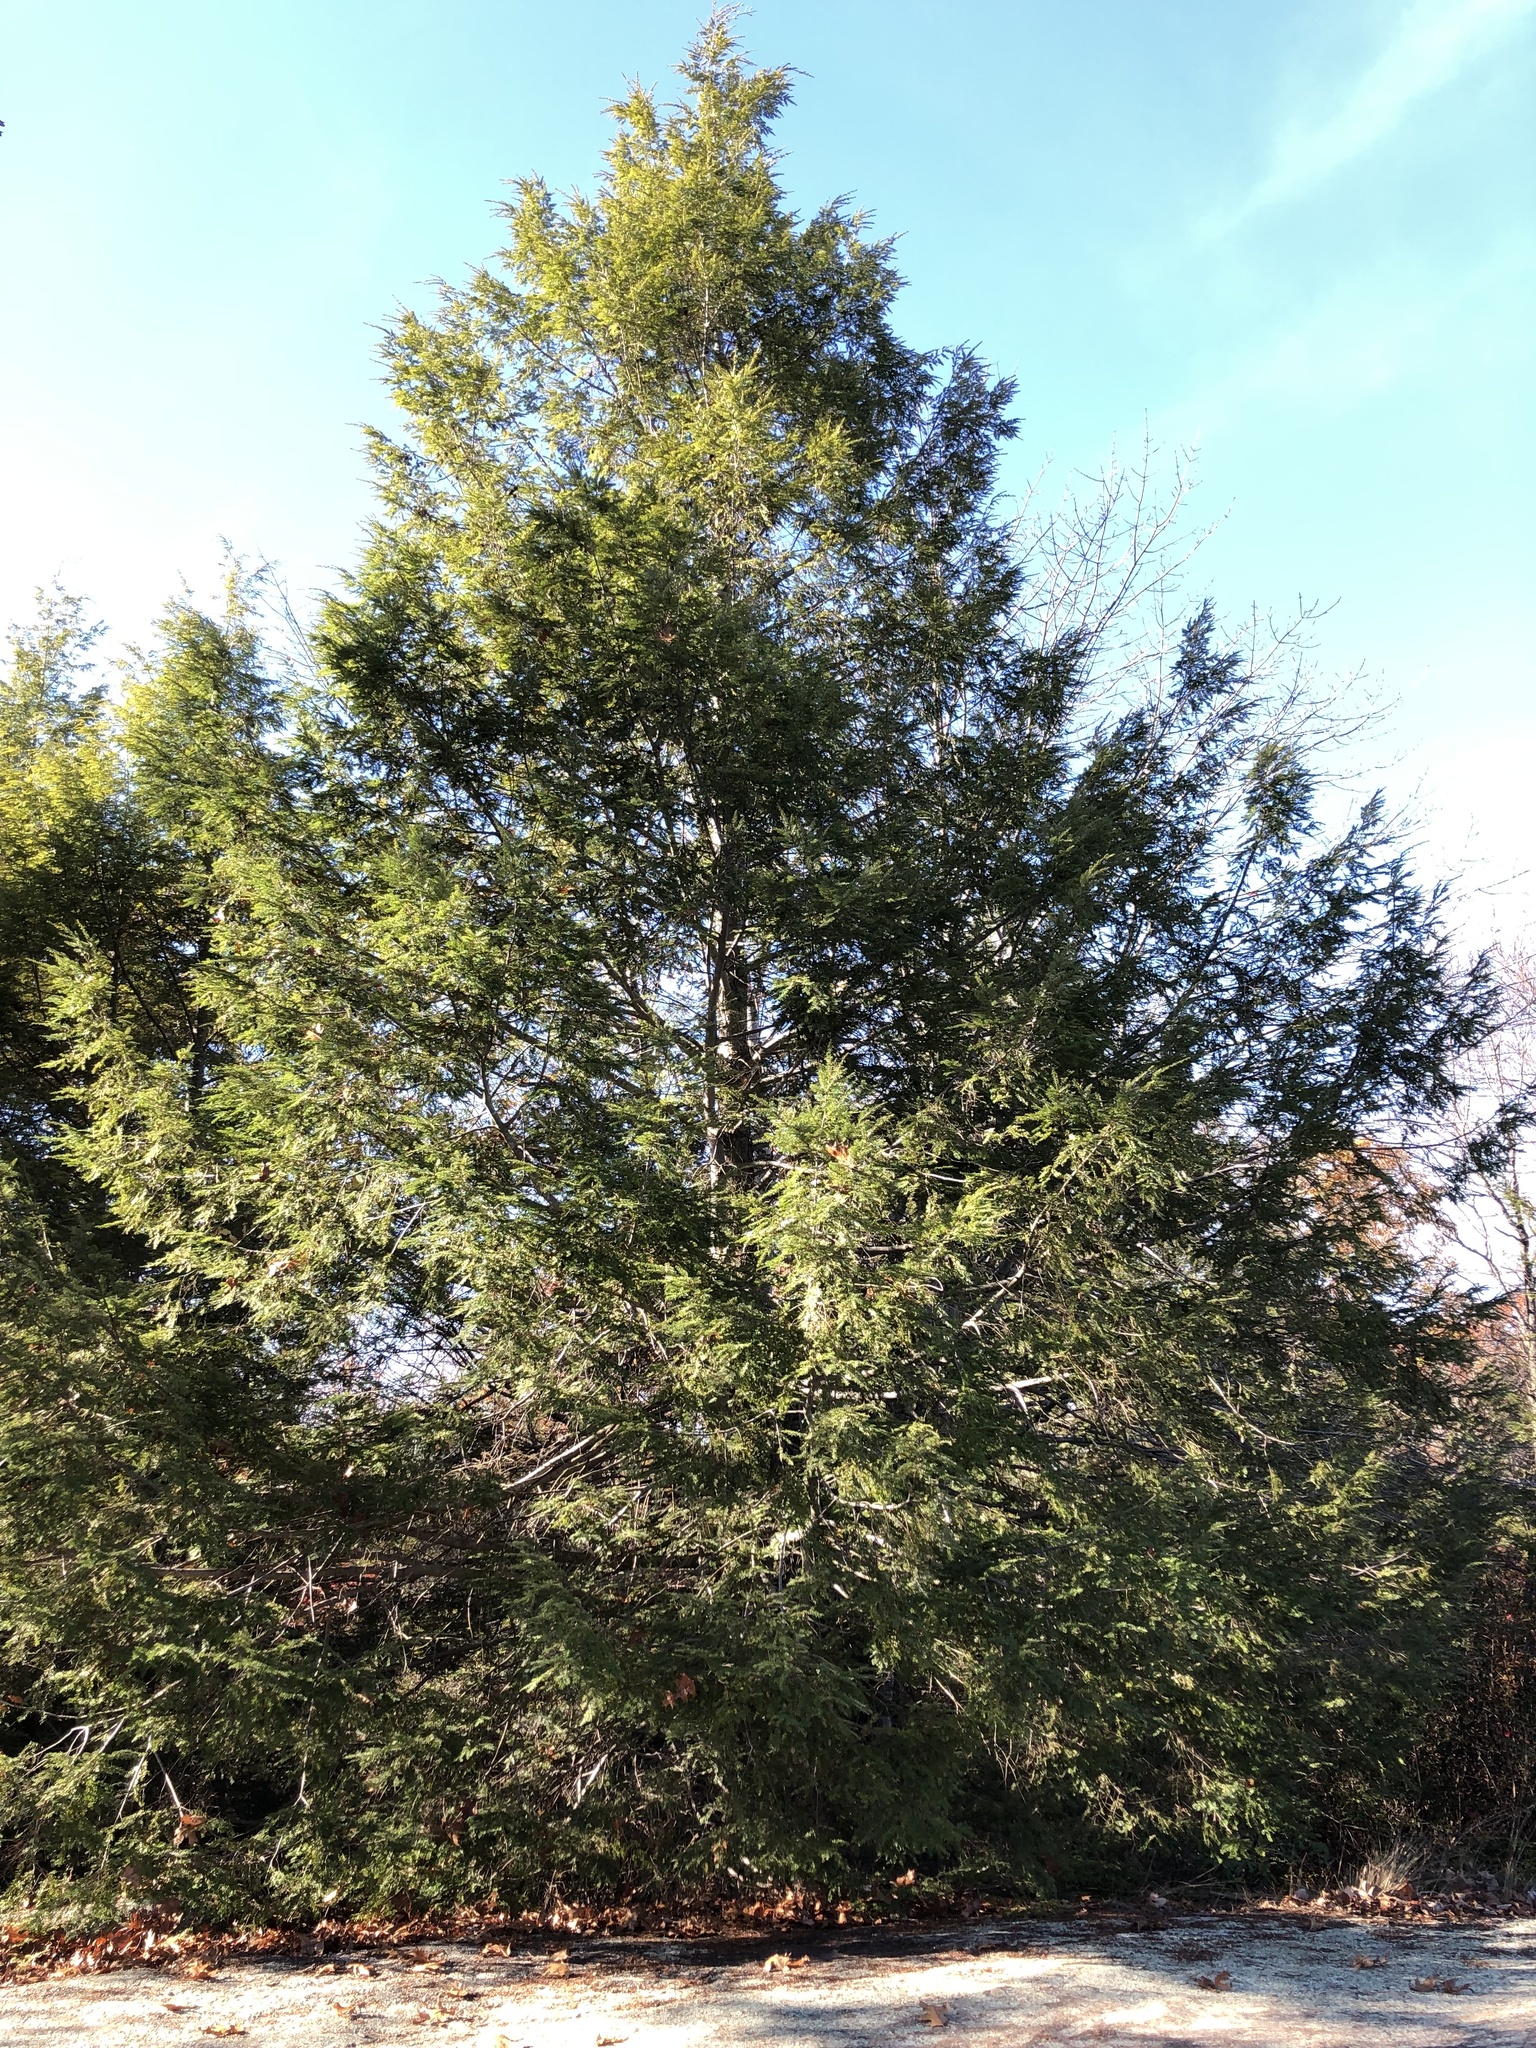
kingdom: Plantae
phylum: Tracheophyta
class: Pinopsida
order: Pinales
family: Pinaceae
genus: Tsuga
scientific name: Tsuga canadensis
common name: Eastern hemlock
